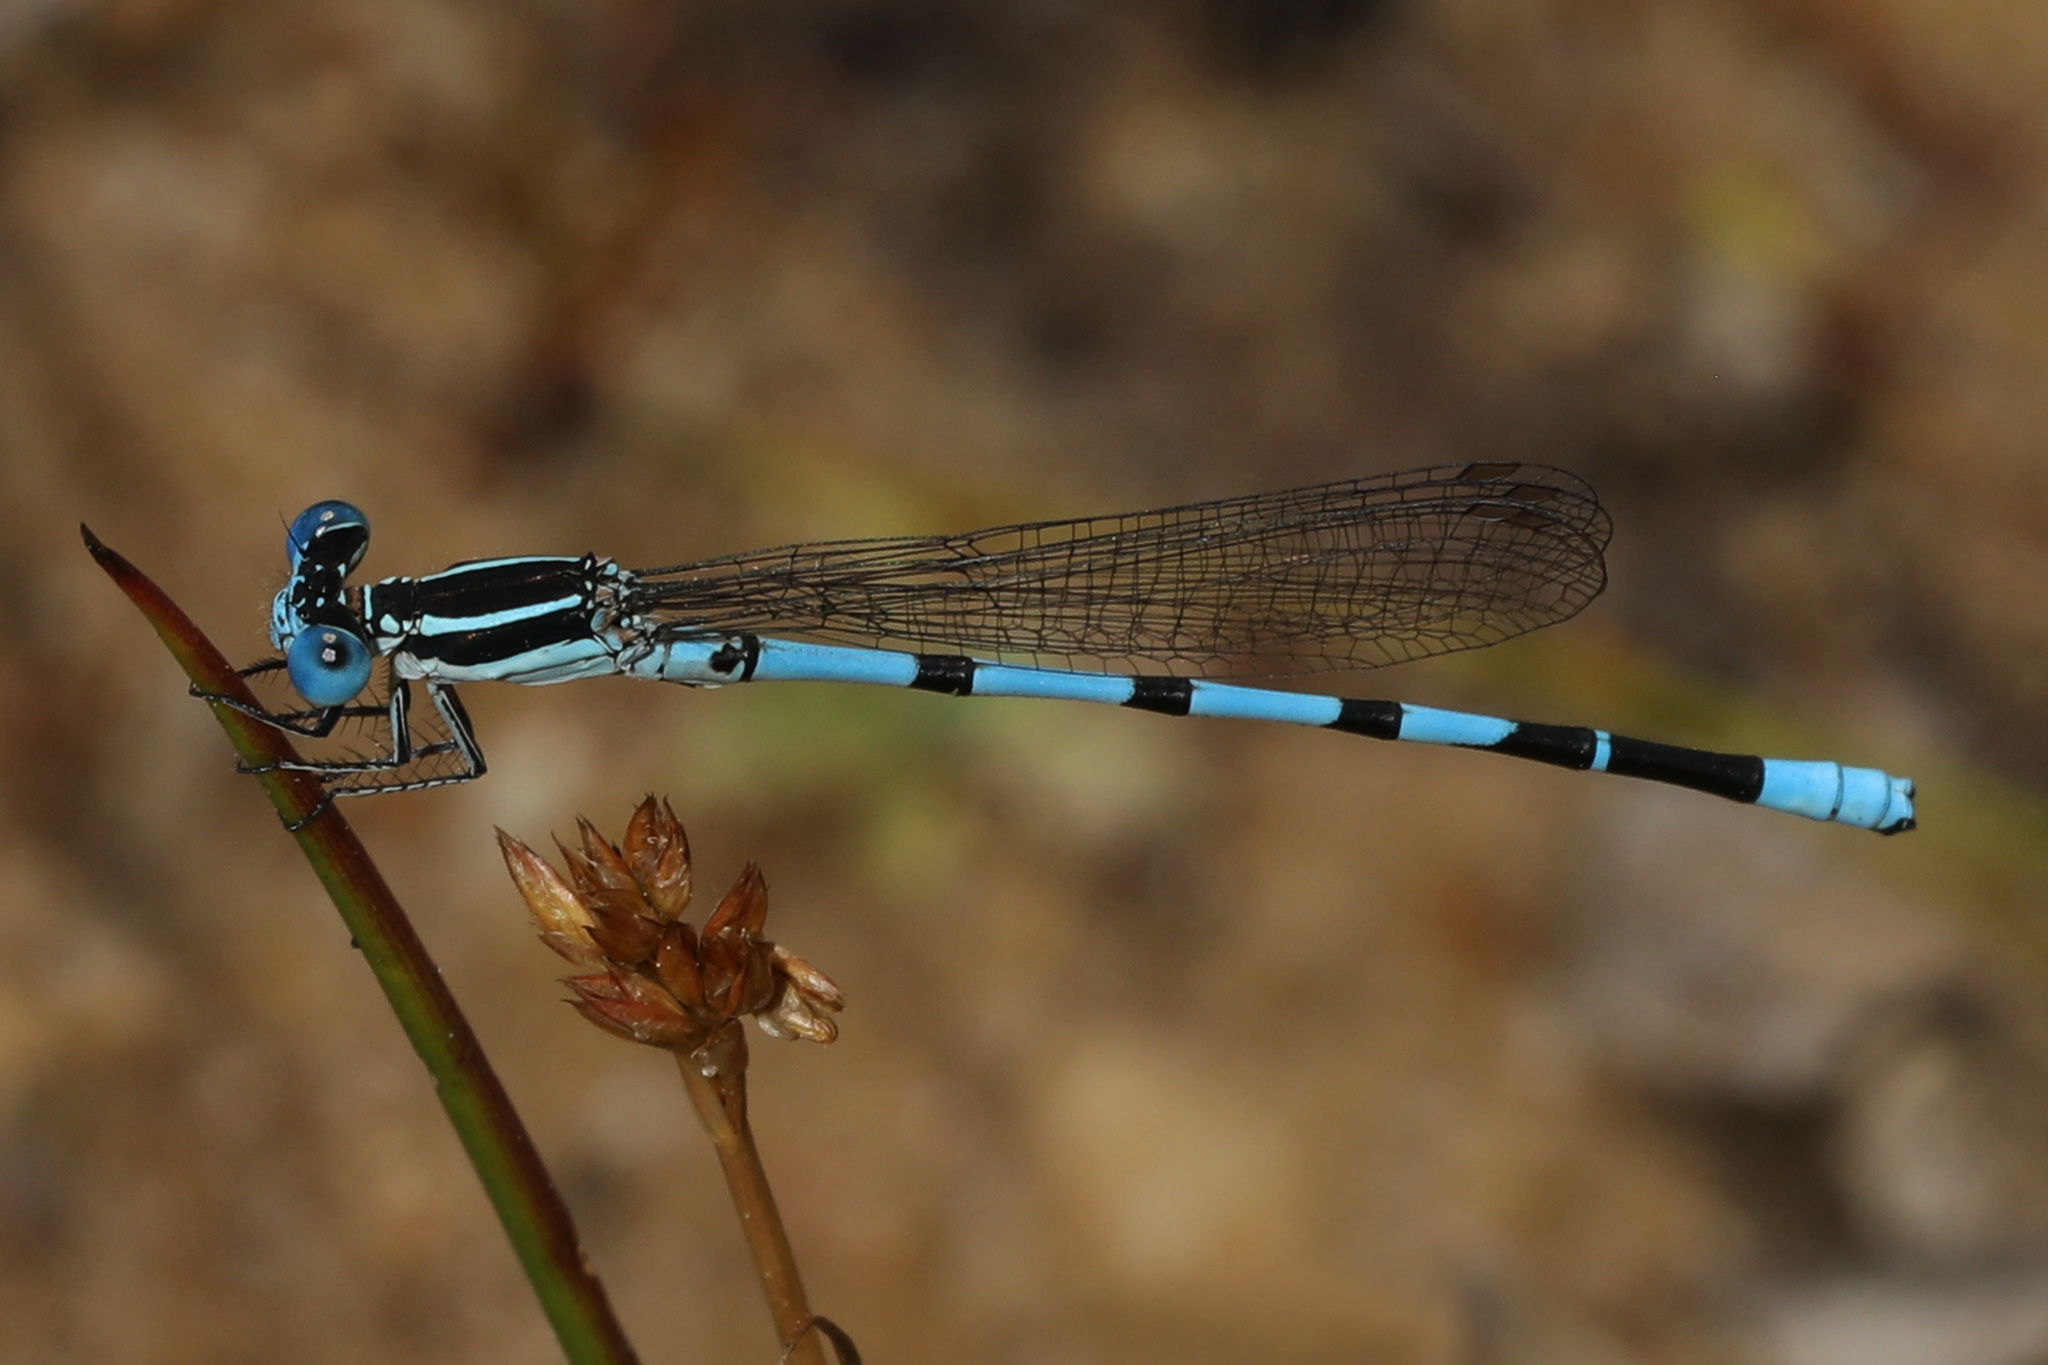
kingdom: Animalia
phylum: Arthropoda
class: Insecta
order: Odonata
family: Coenagrionidae
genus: Argia
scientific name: Argia bipunctulata
